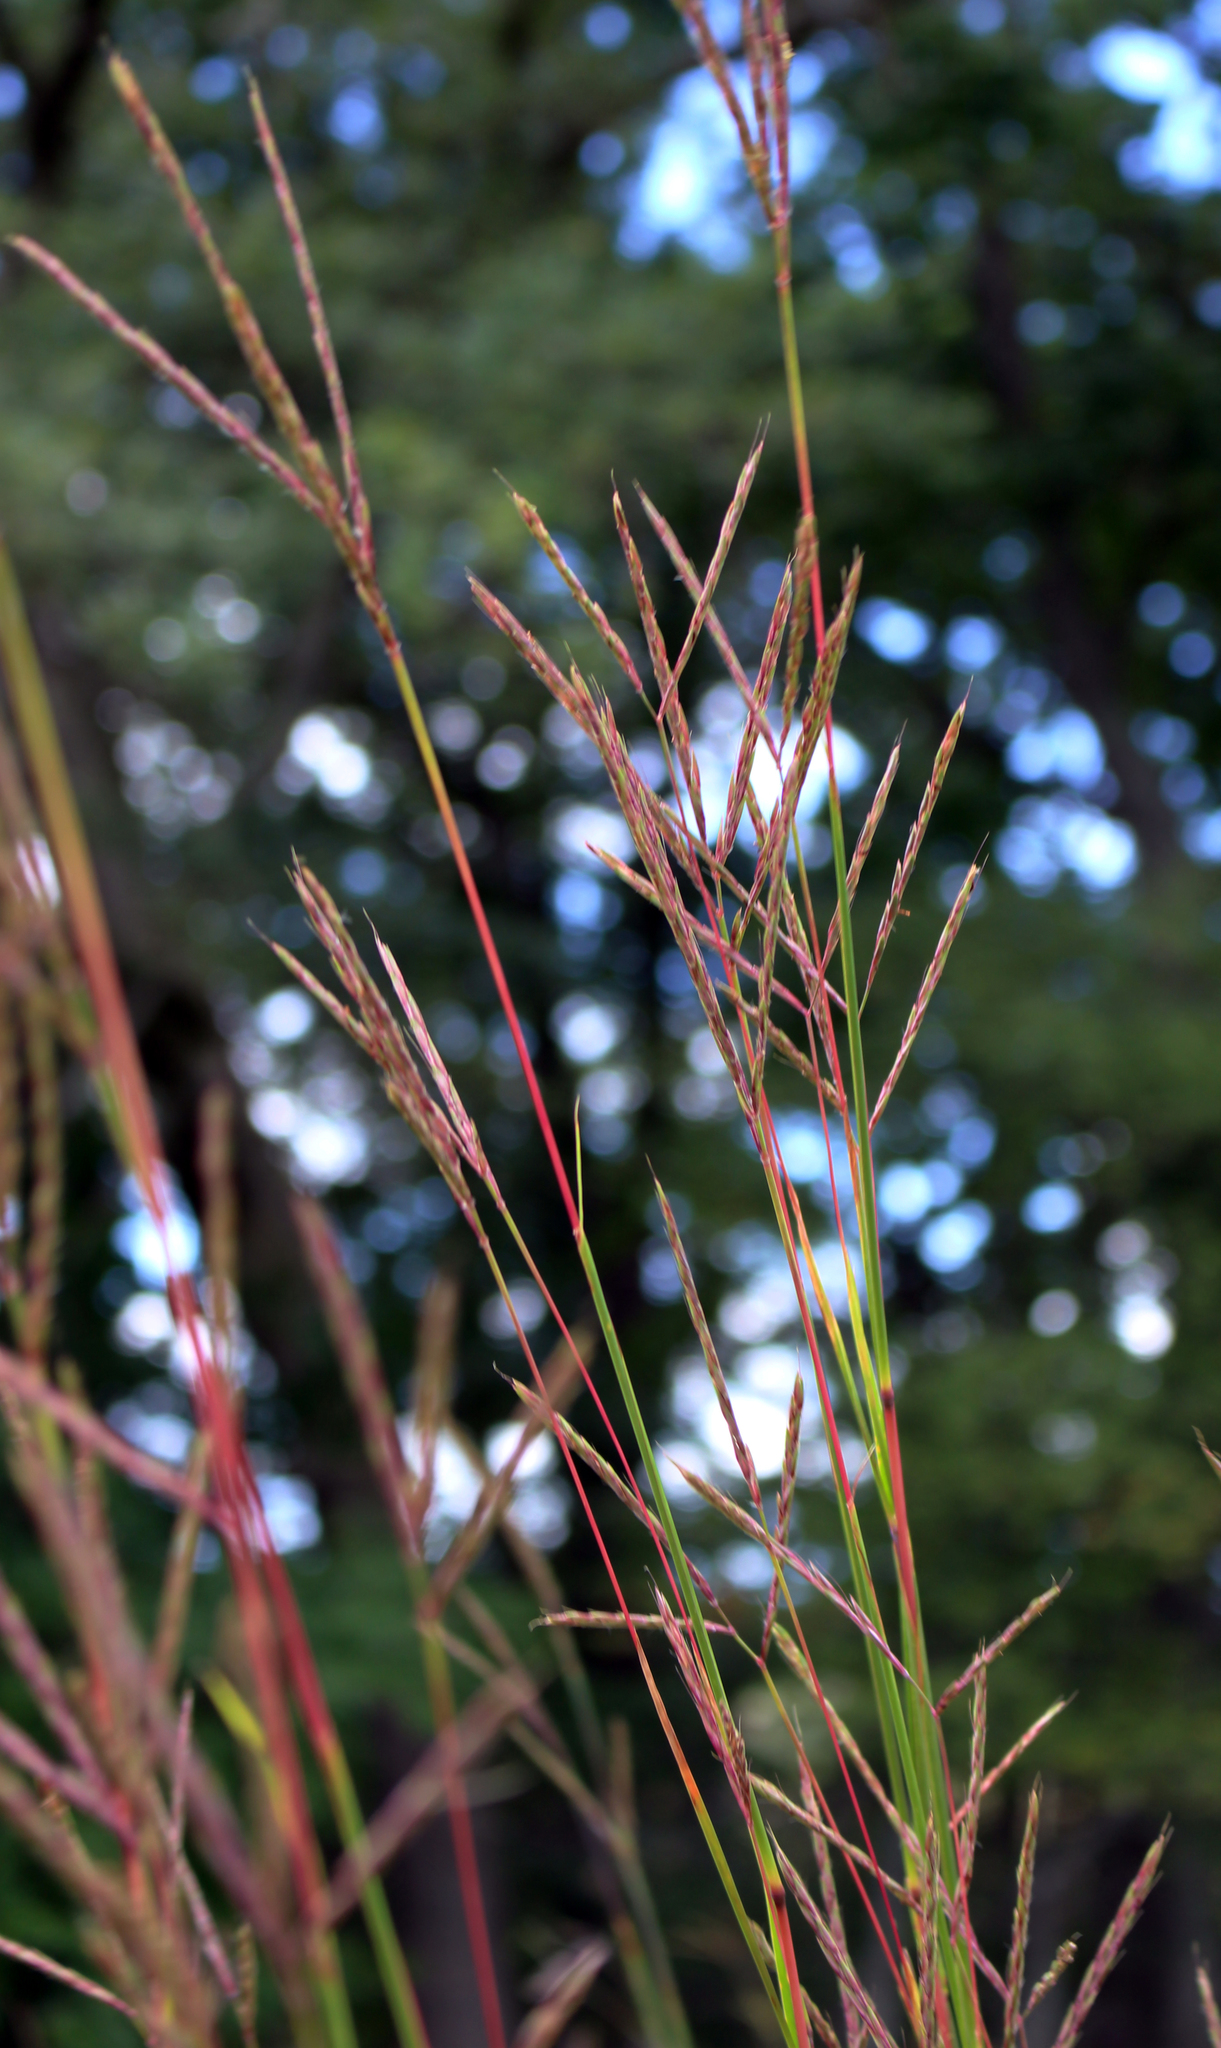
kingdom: Plantae
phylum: Tracheophyta
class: Liliopsida
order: Poales
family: Poaceae
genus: Andropogon
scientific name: Andropogon gerardi
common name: Big bluestem
